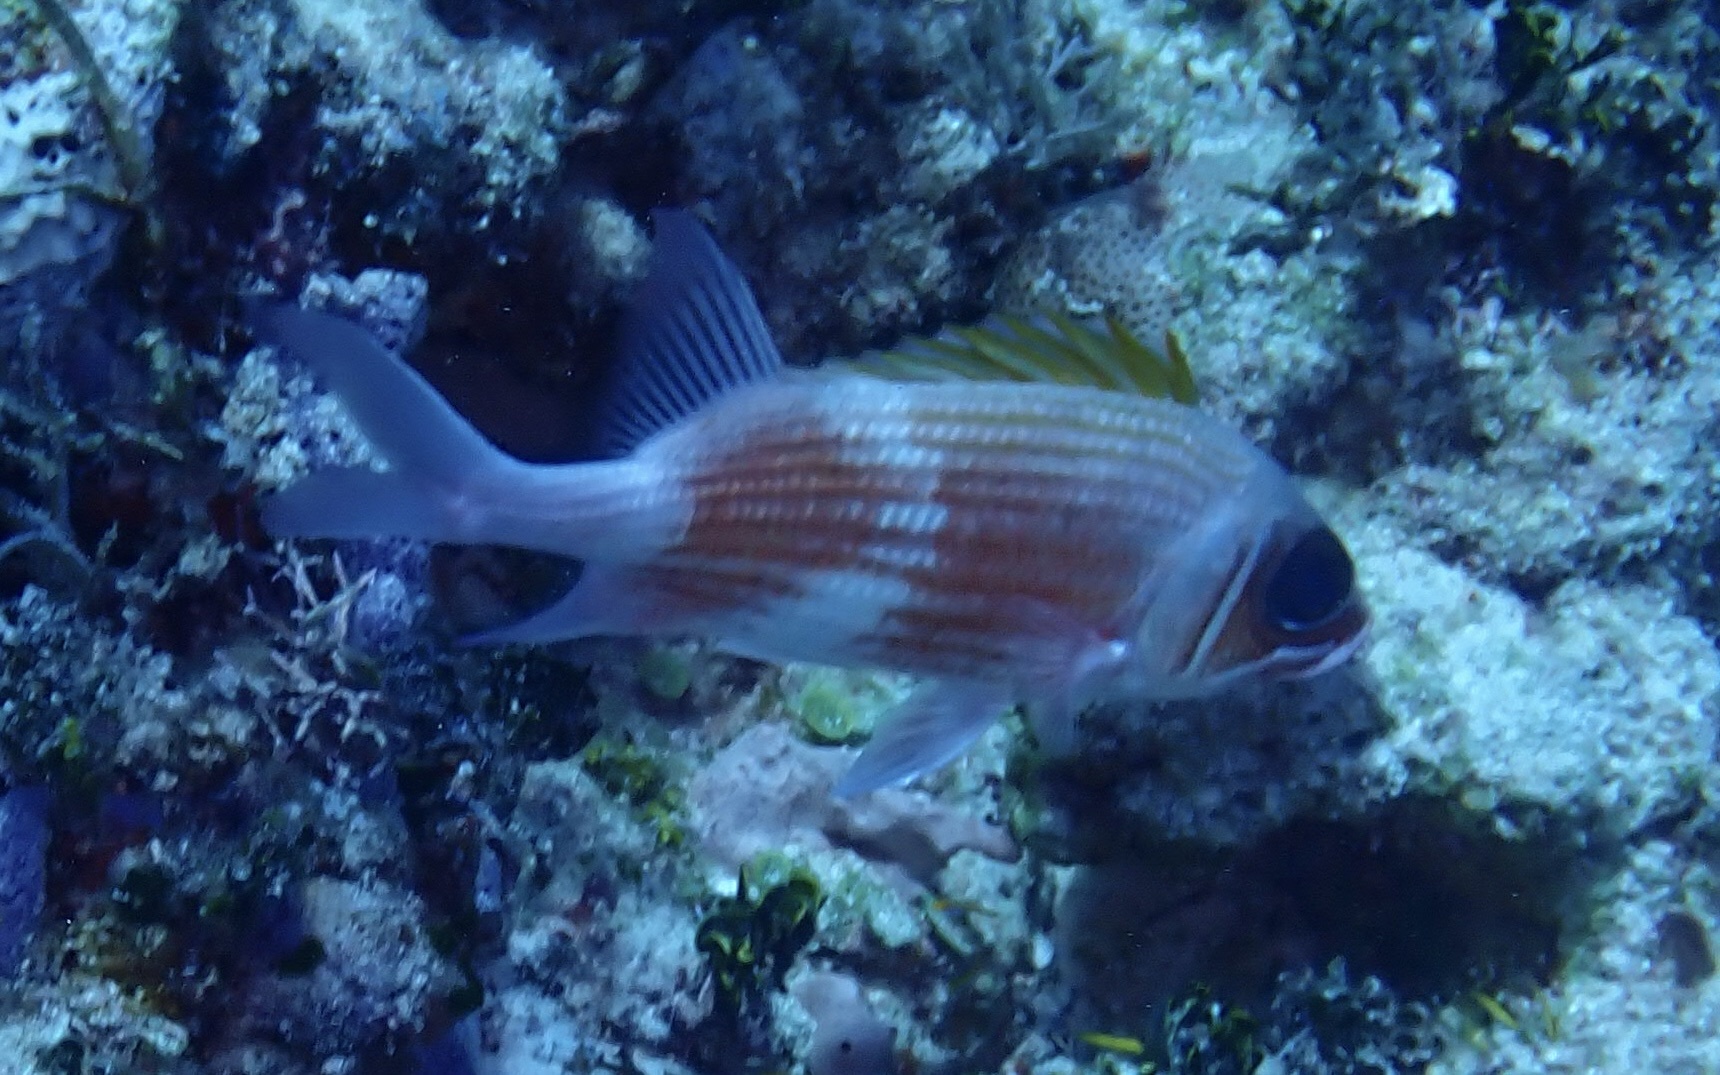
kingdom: Animalia
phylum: Chordata
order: Beryciformes
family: Holocentridae
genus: Holocentrus
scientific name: Holocentrus adscensionis
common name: Squirrelfish
